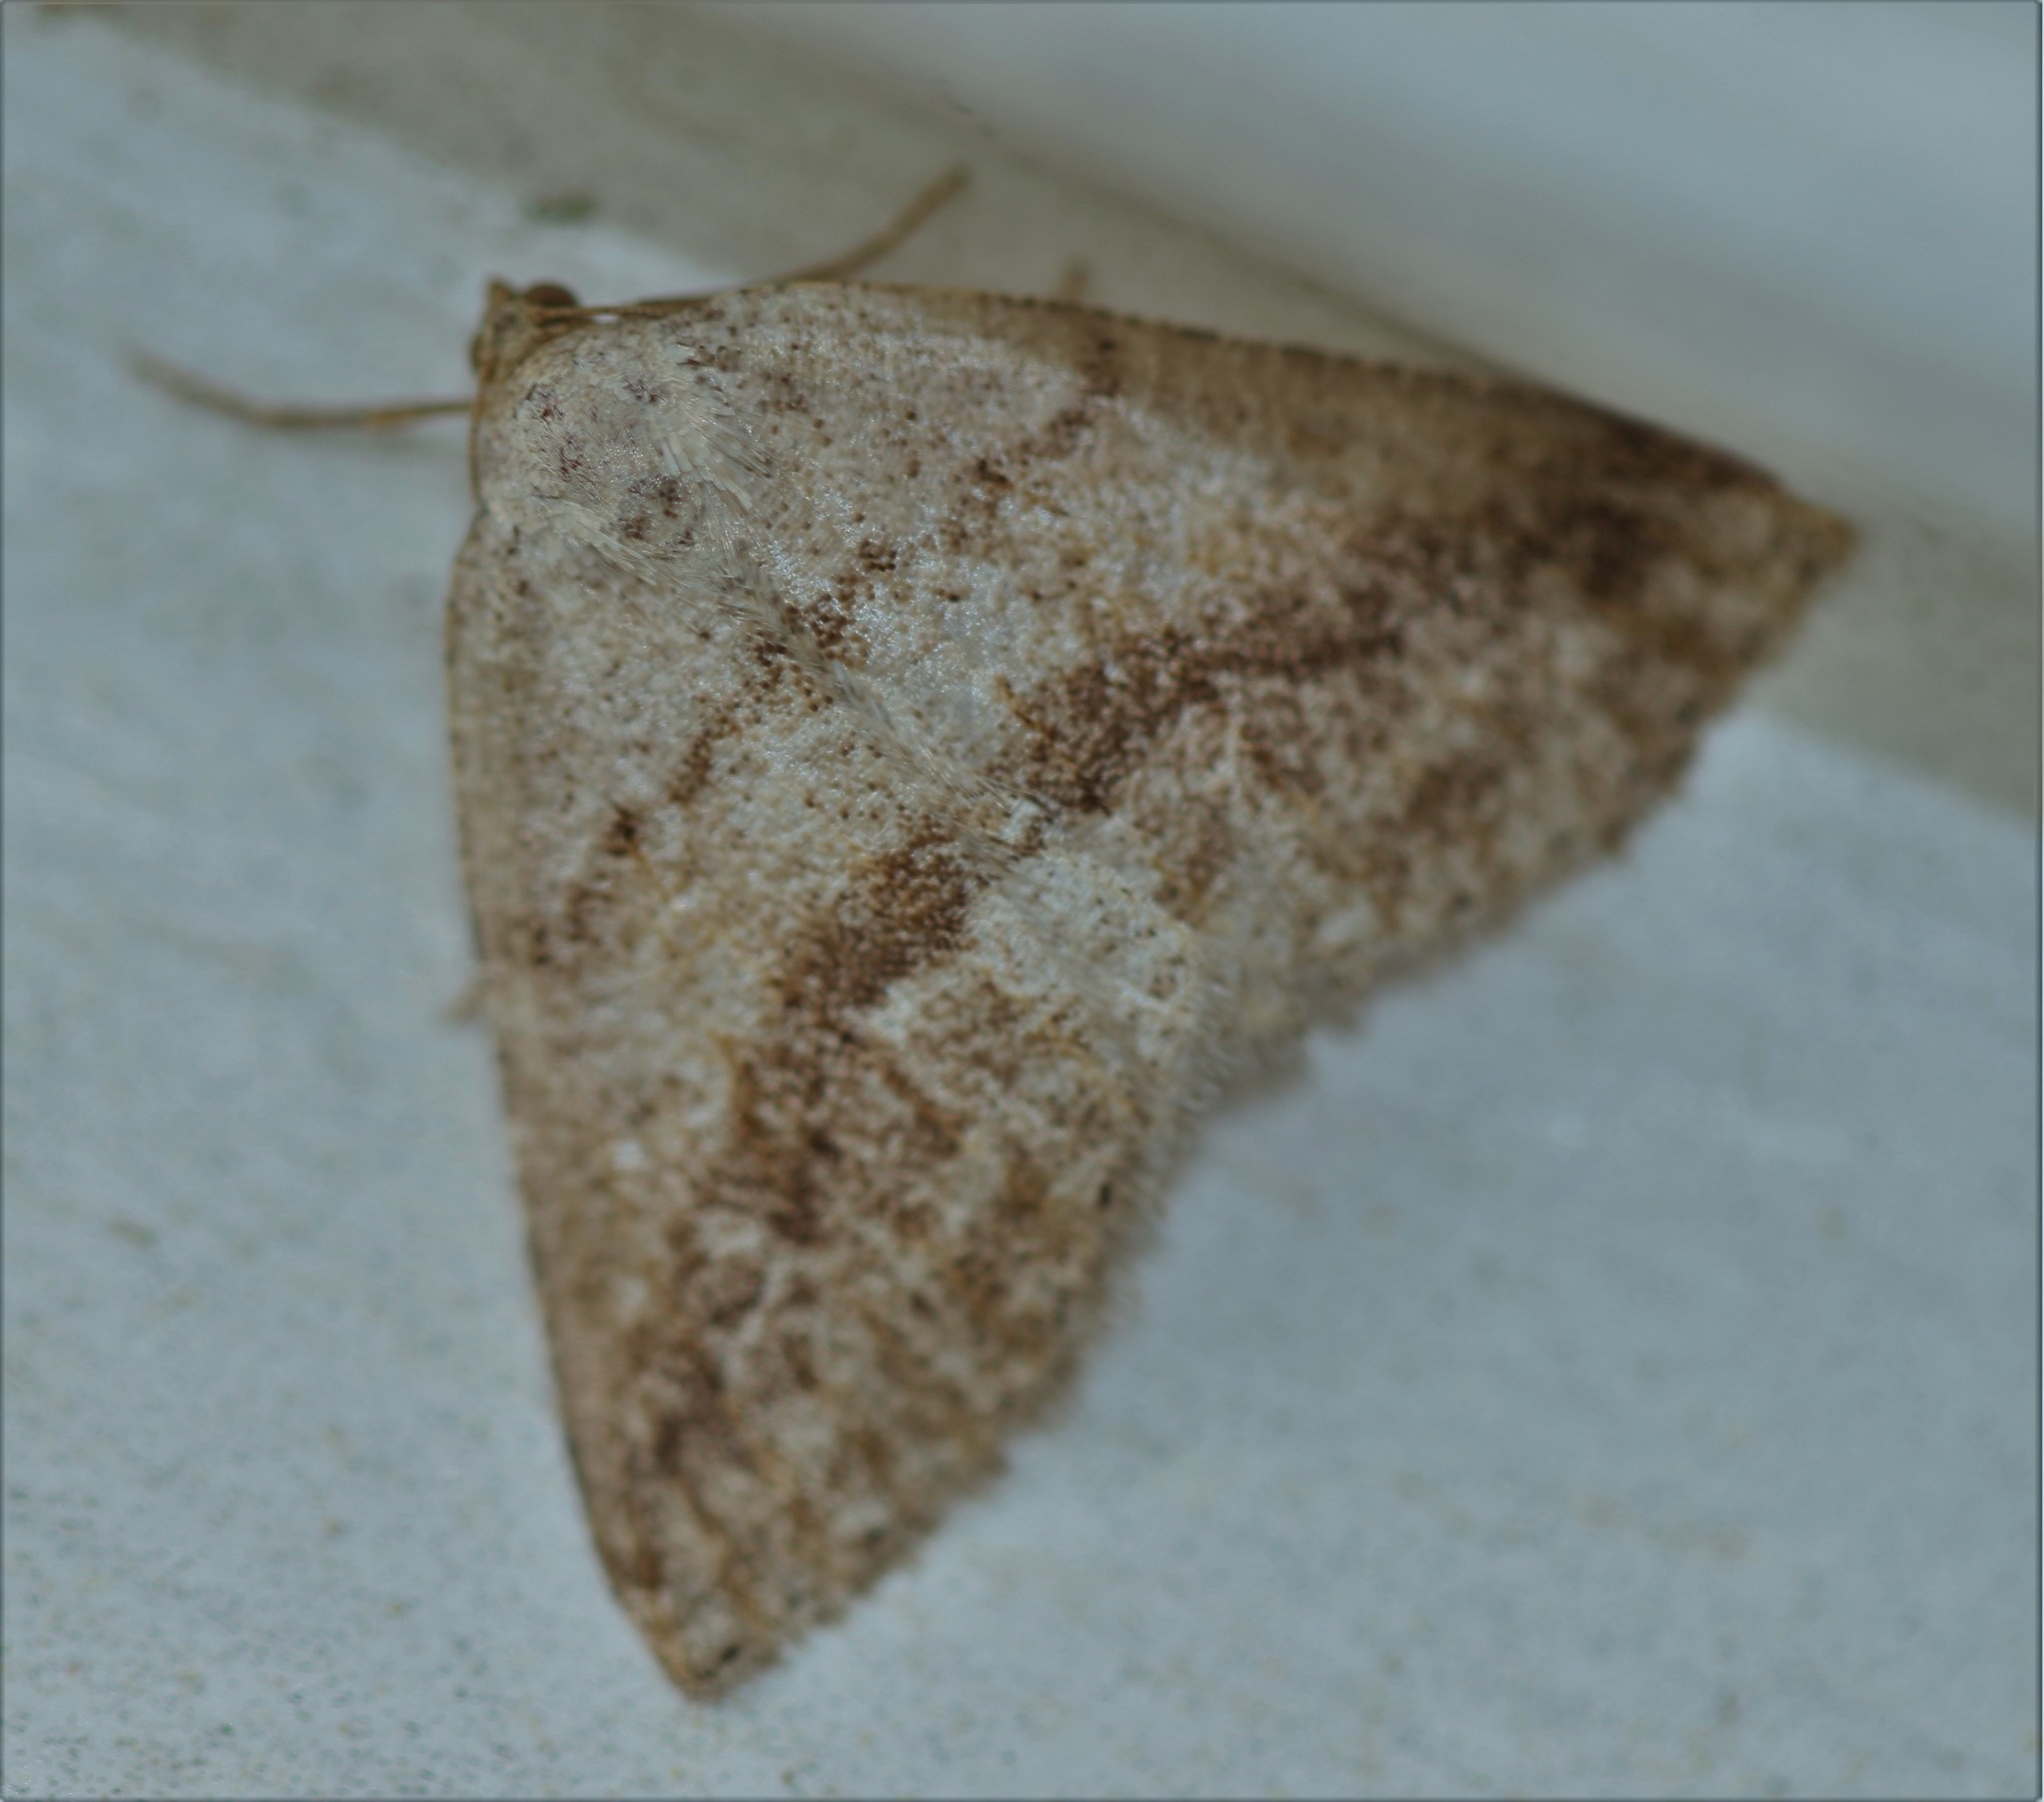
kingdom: Animalia
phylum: Arthropoda
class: Insecta
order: Lepidoptera
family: Geometridae
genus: Tacparia
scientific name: Tacparia detersata
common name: Pale alder moth
